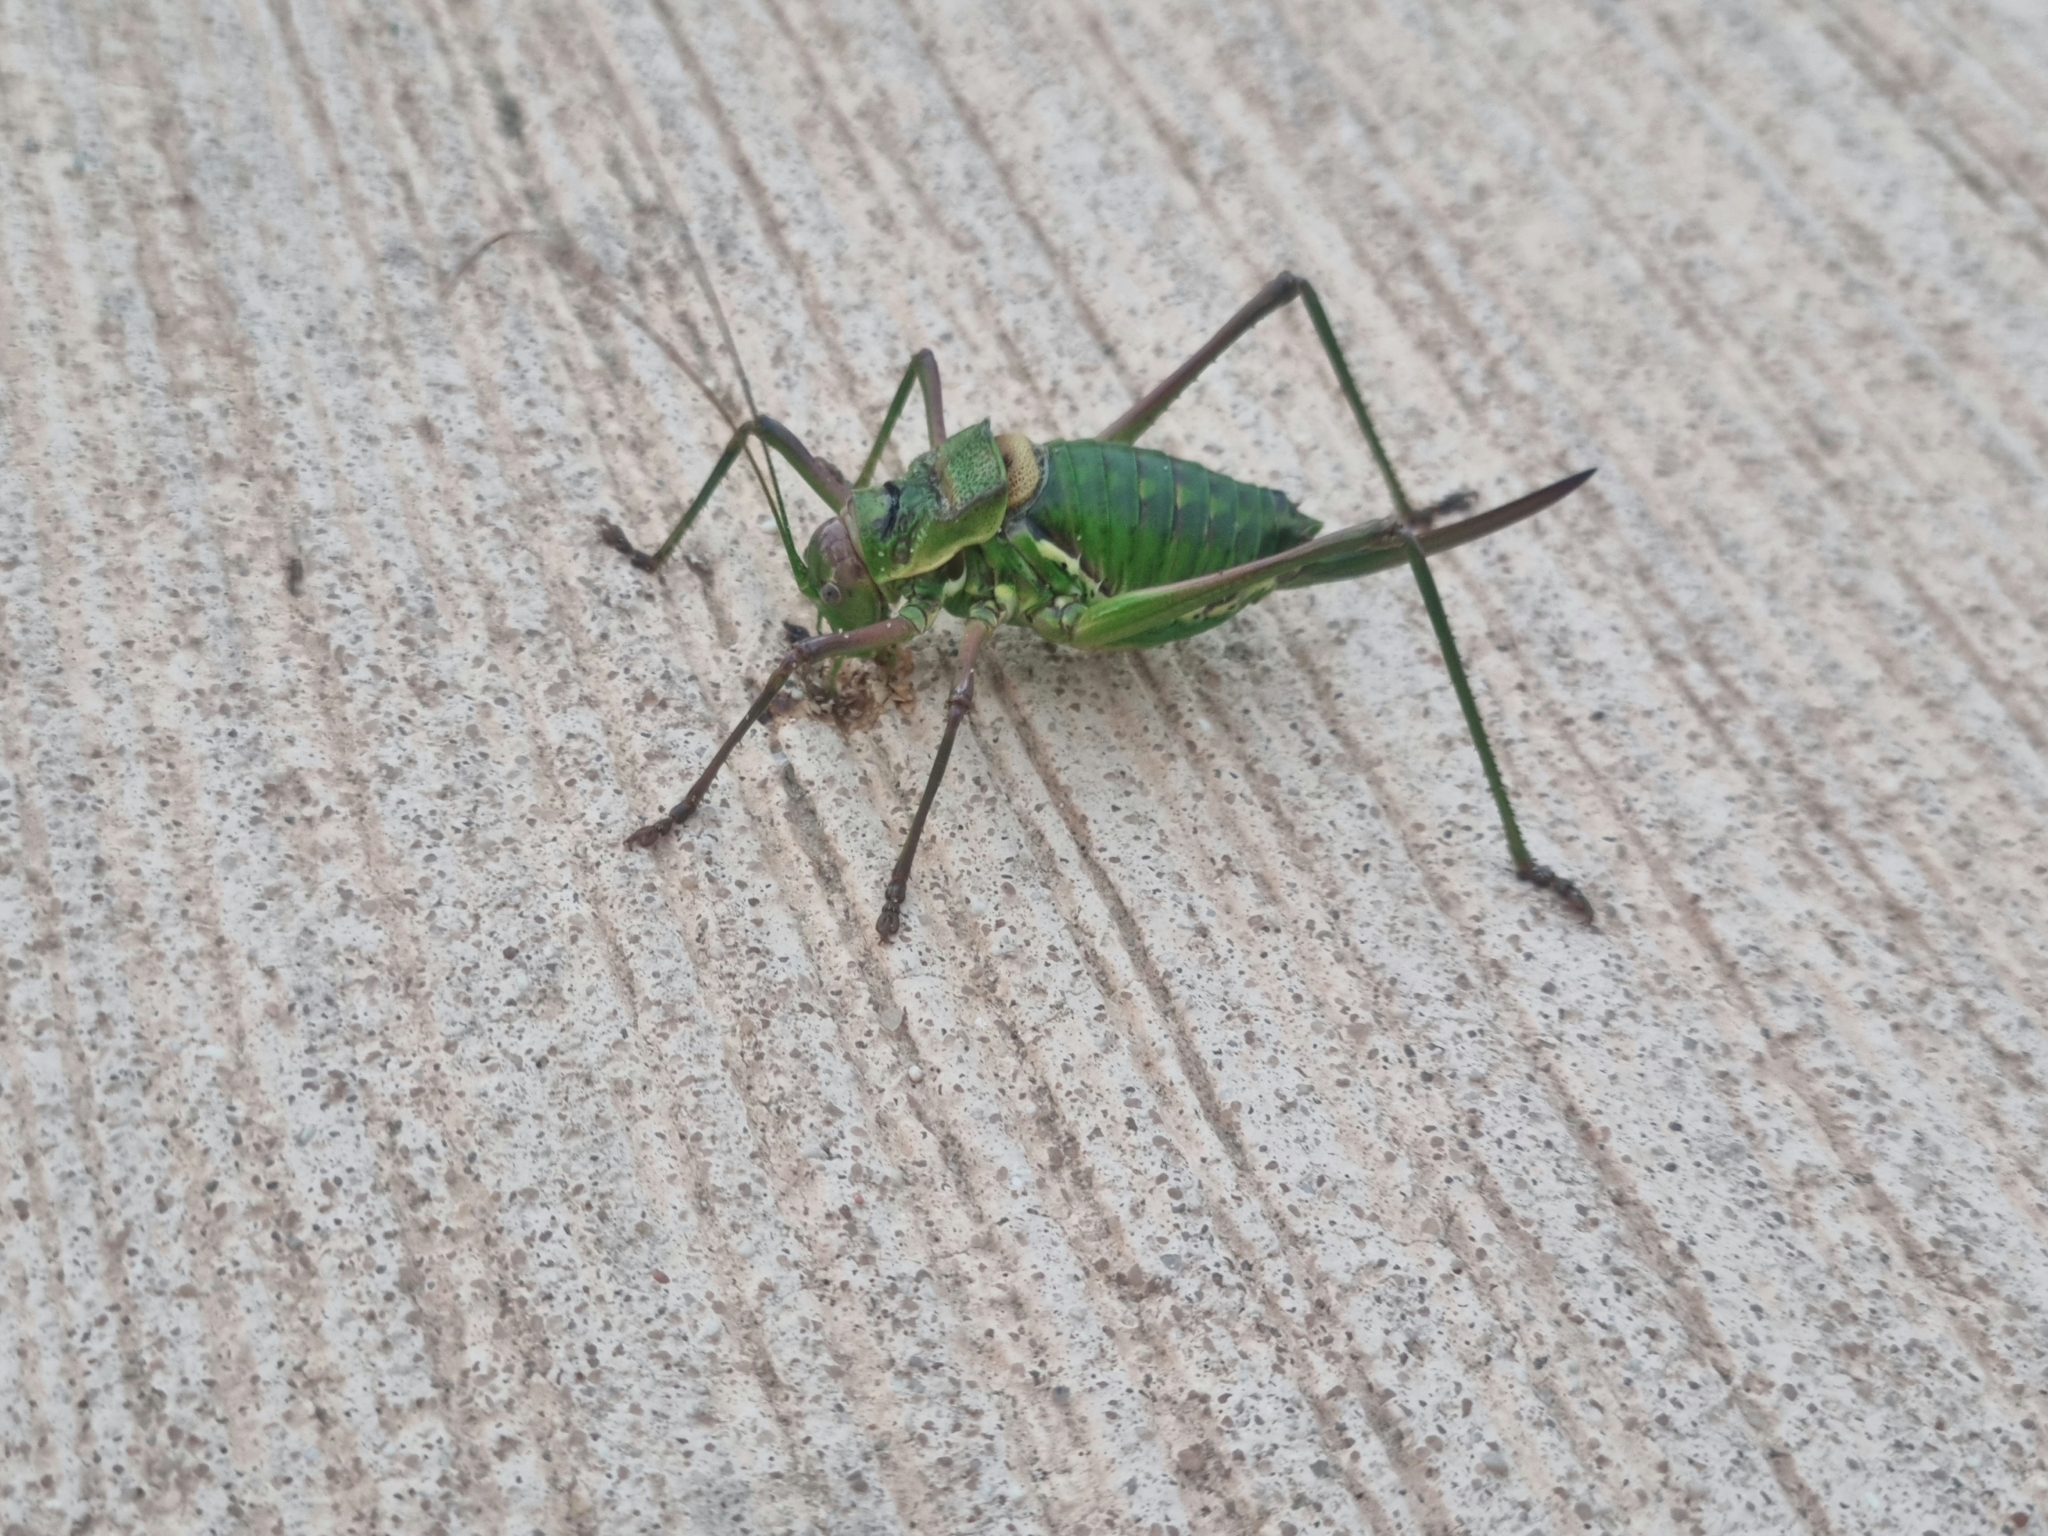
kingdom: Animalia
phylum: Arthropoda
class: Insecta
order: Orthoptera
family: Tettigoniidae
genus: Parasteropleurus
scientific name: Parasteropleurus perezii
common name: Perez's saddle bush-cricke
